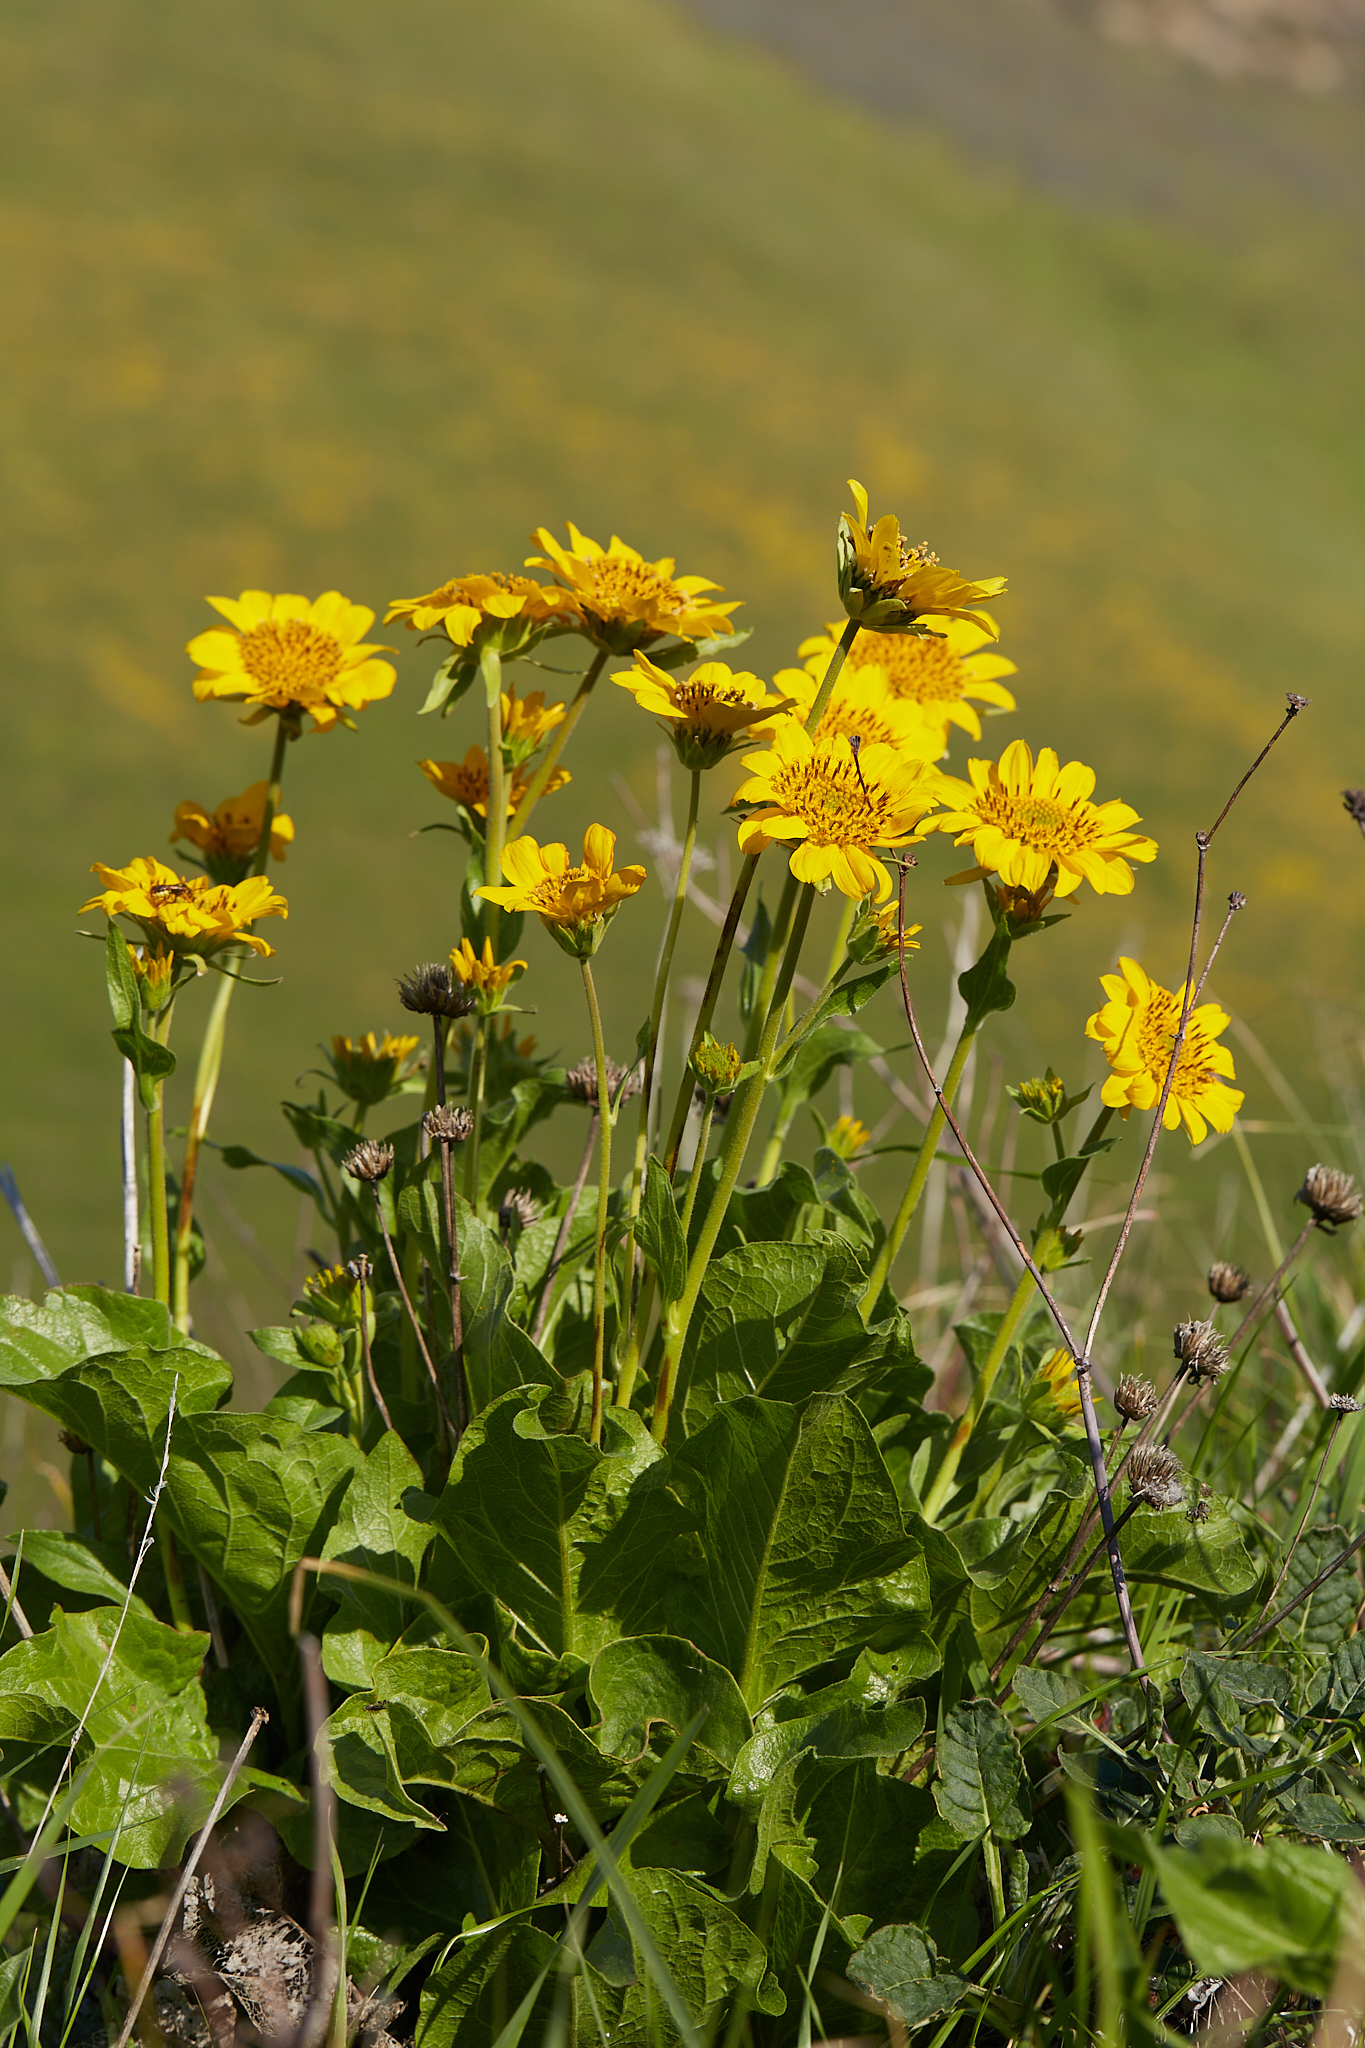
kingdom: Plantae
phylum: Tracheophyta
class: Magnoliopsida
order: Asterales
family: Asteraceae
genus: Balsamorhiza
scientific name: Balsamorhiza deltoidea
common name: Deltoid balsamroot
